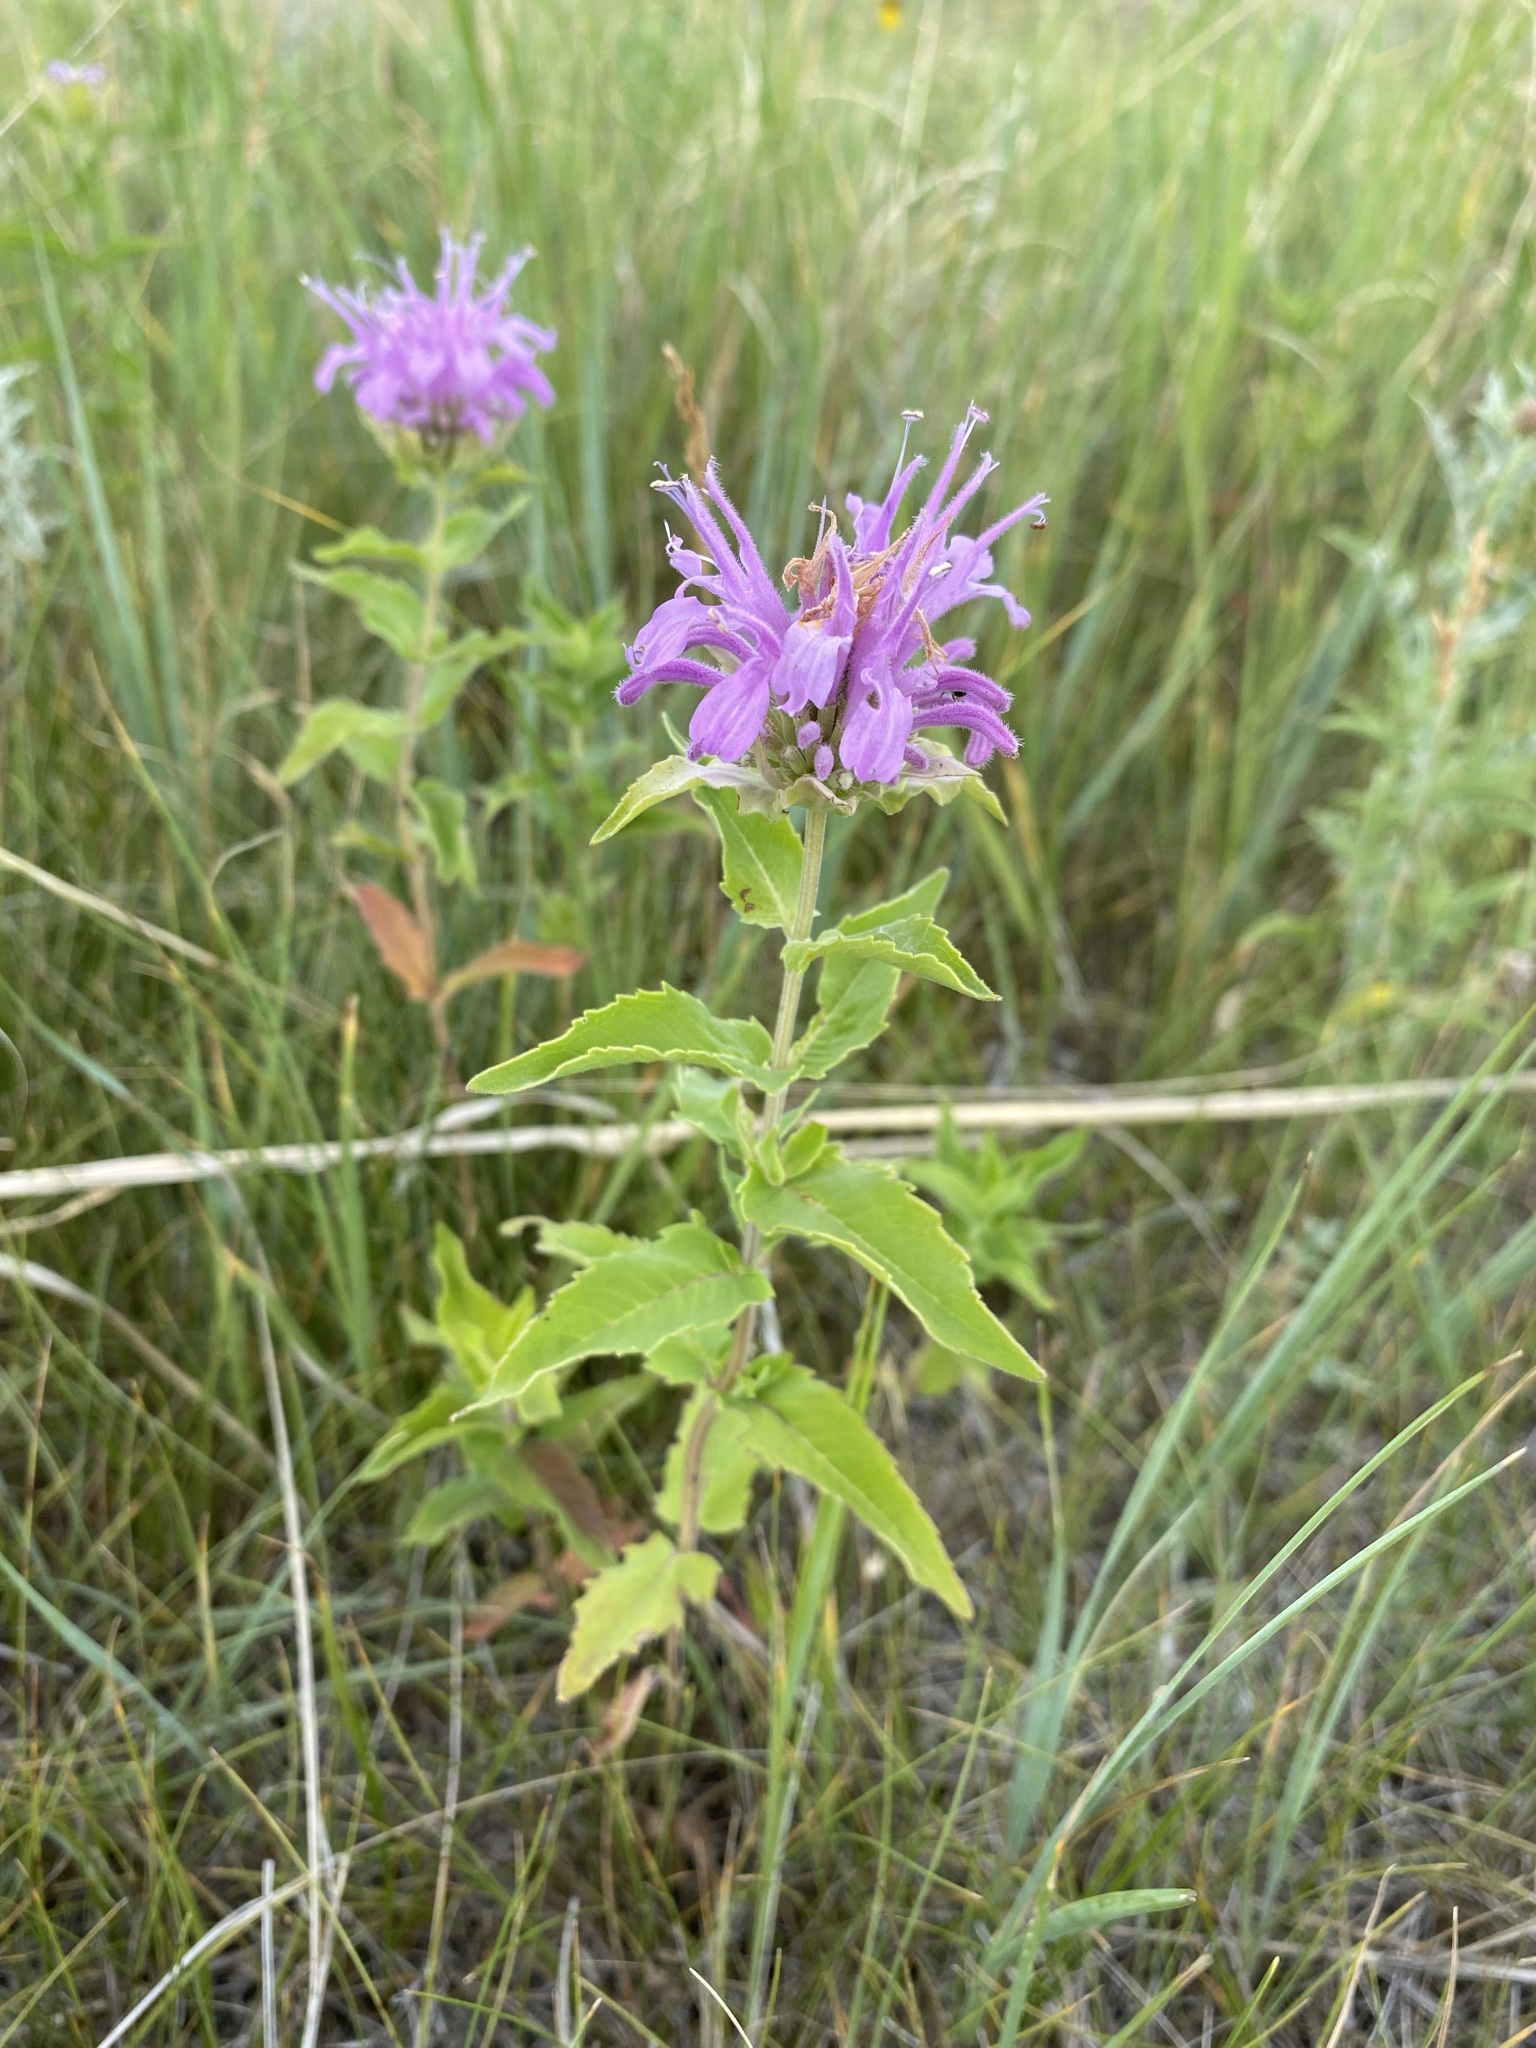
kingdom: Plantae
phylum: Tracheophyta
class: Magnoliopsida
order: Lamiales
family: Lamiaceae
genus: Monarda
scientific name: Monarda fistulosa
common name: Purple beebalm
